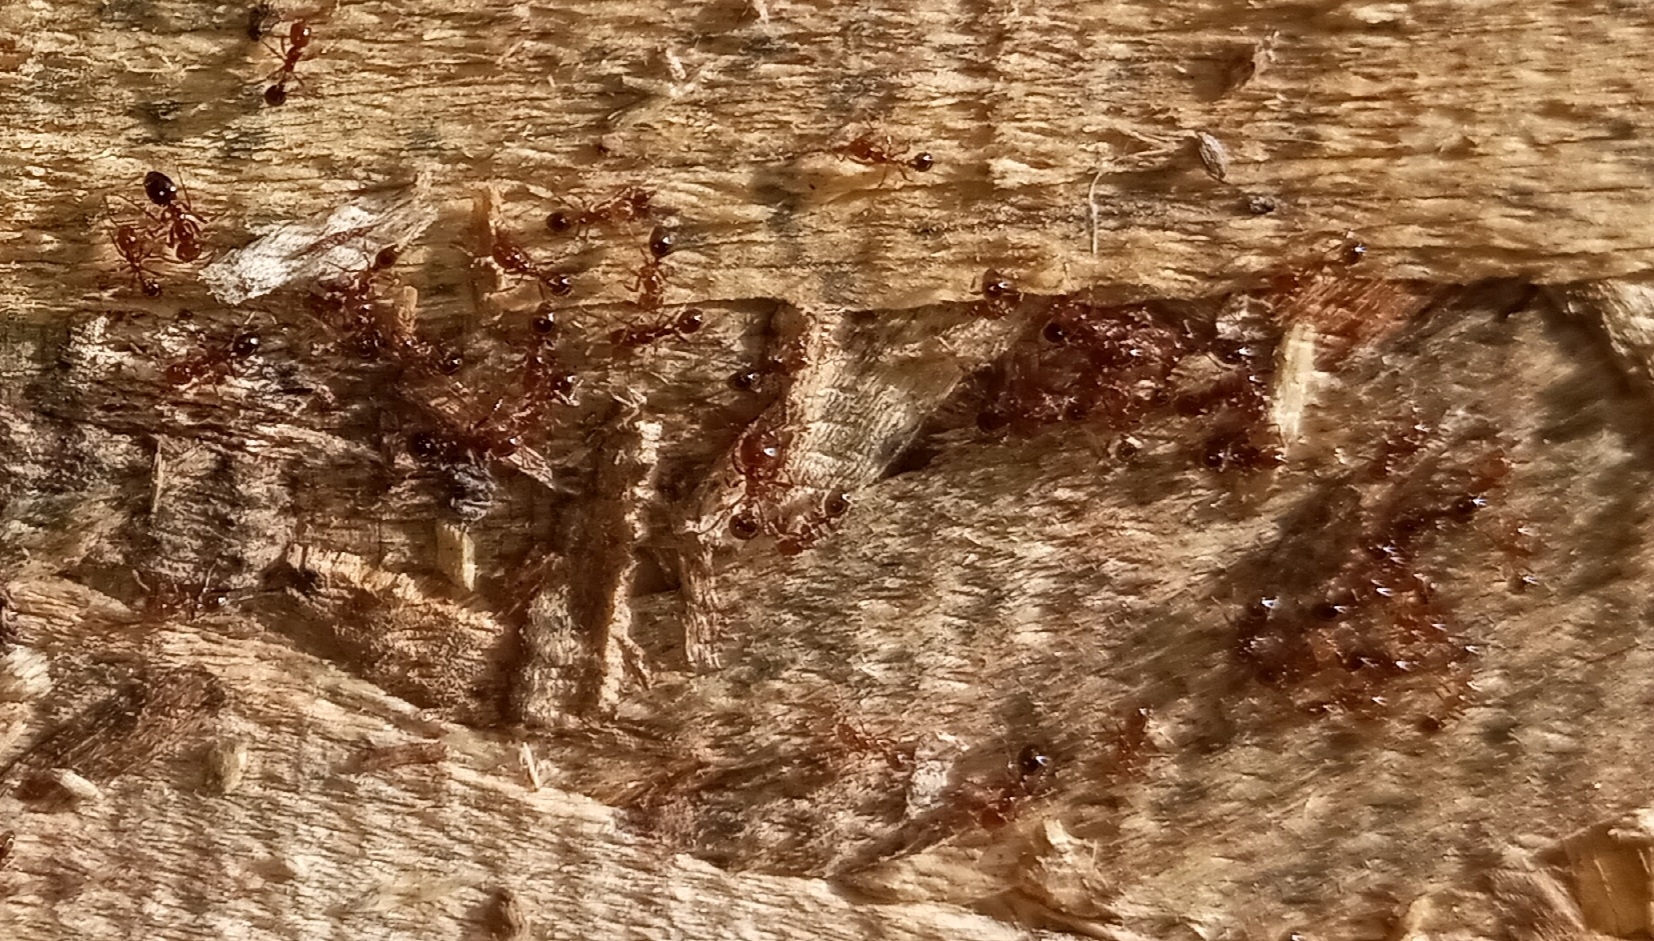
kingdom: Animalia
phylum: Arthropoda
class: Insecta
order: Hymenoptera
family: Formicidae
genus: Solenopsis
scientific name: Solenopsis invicta
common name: Red imported fire ant
